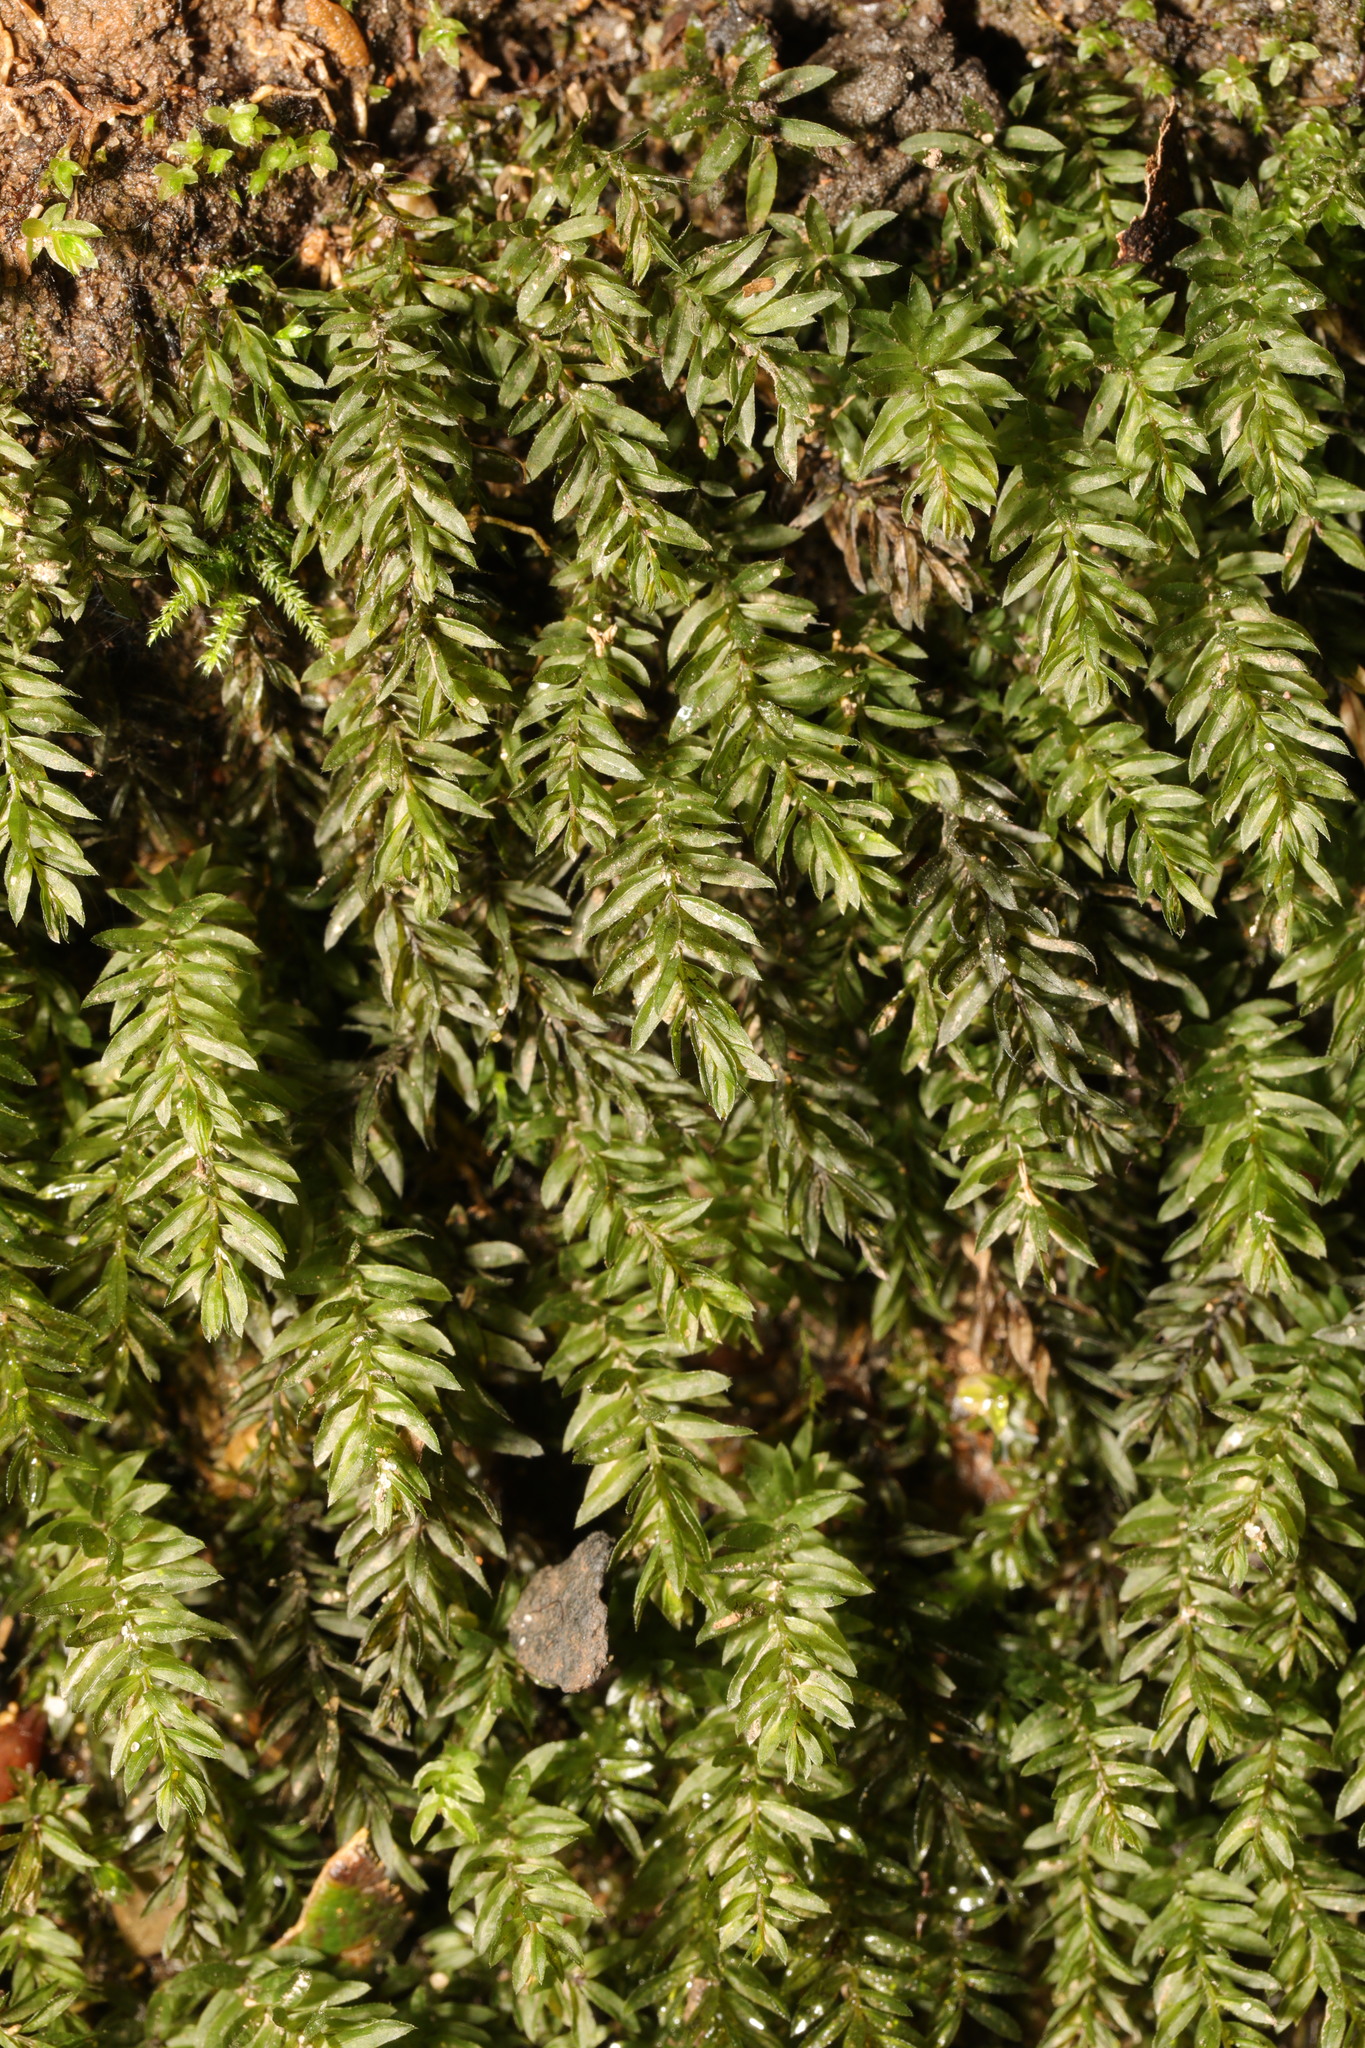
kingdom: Plantae
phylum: Bryophyta
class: Bryopsida
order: Bryales
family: Mniaceae
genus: Mnium
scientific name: Mnium hornum
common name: Swan's-neck leafy moss
